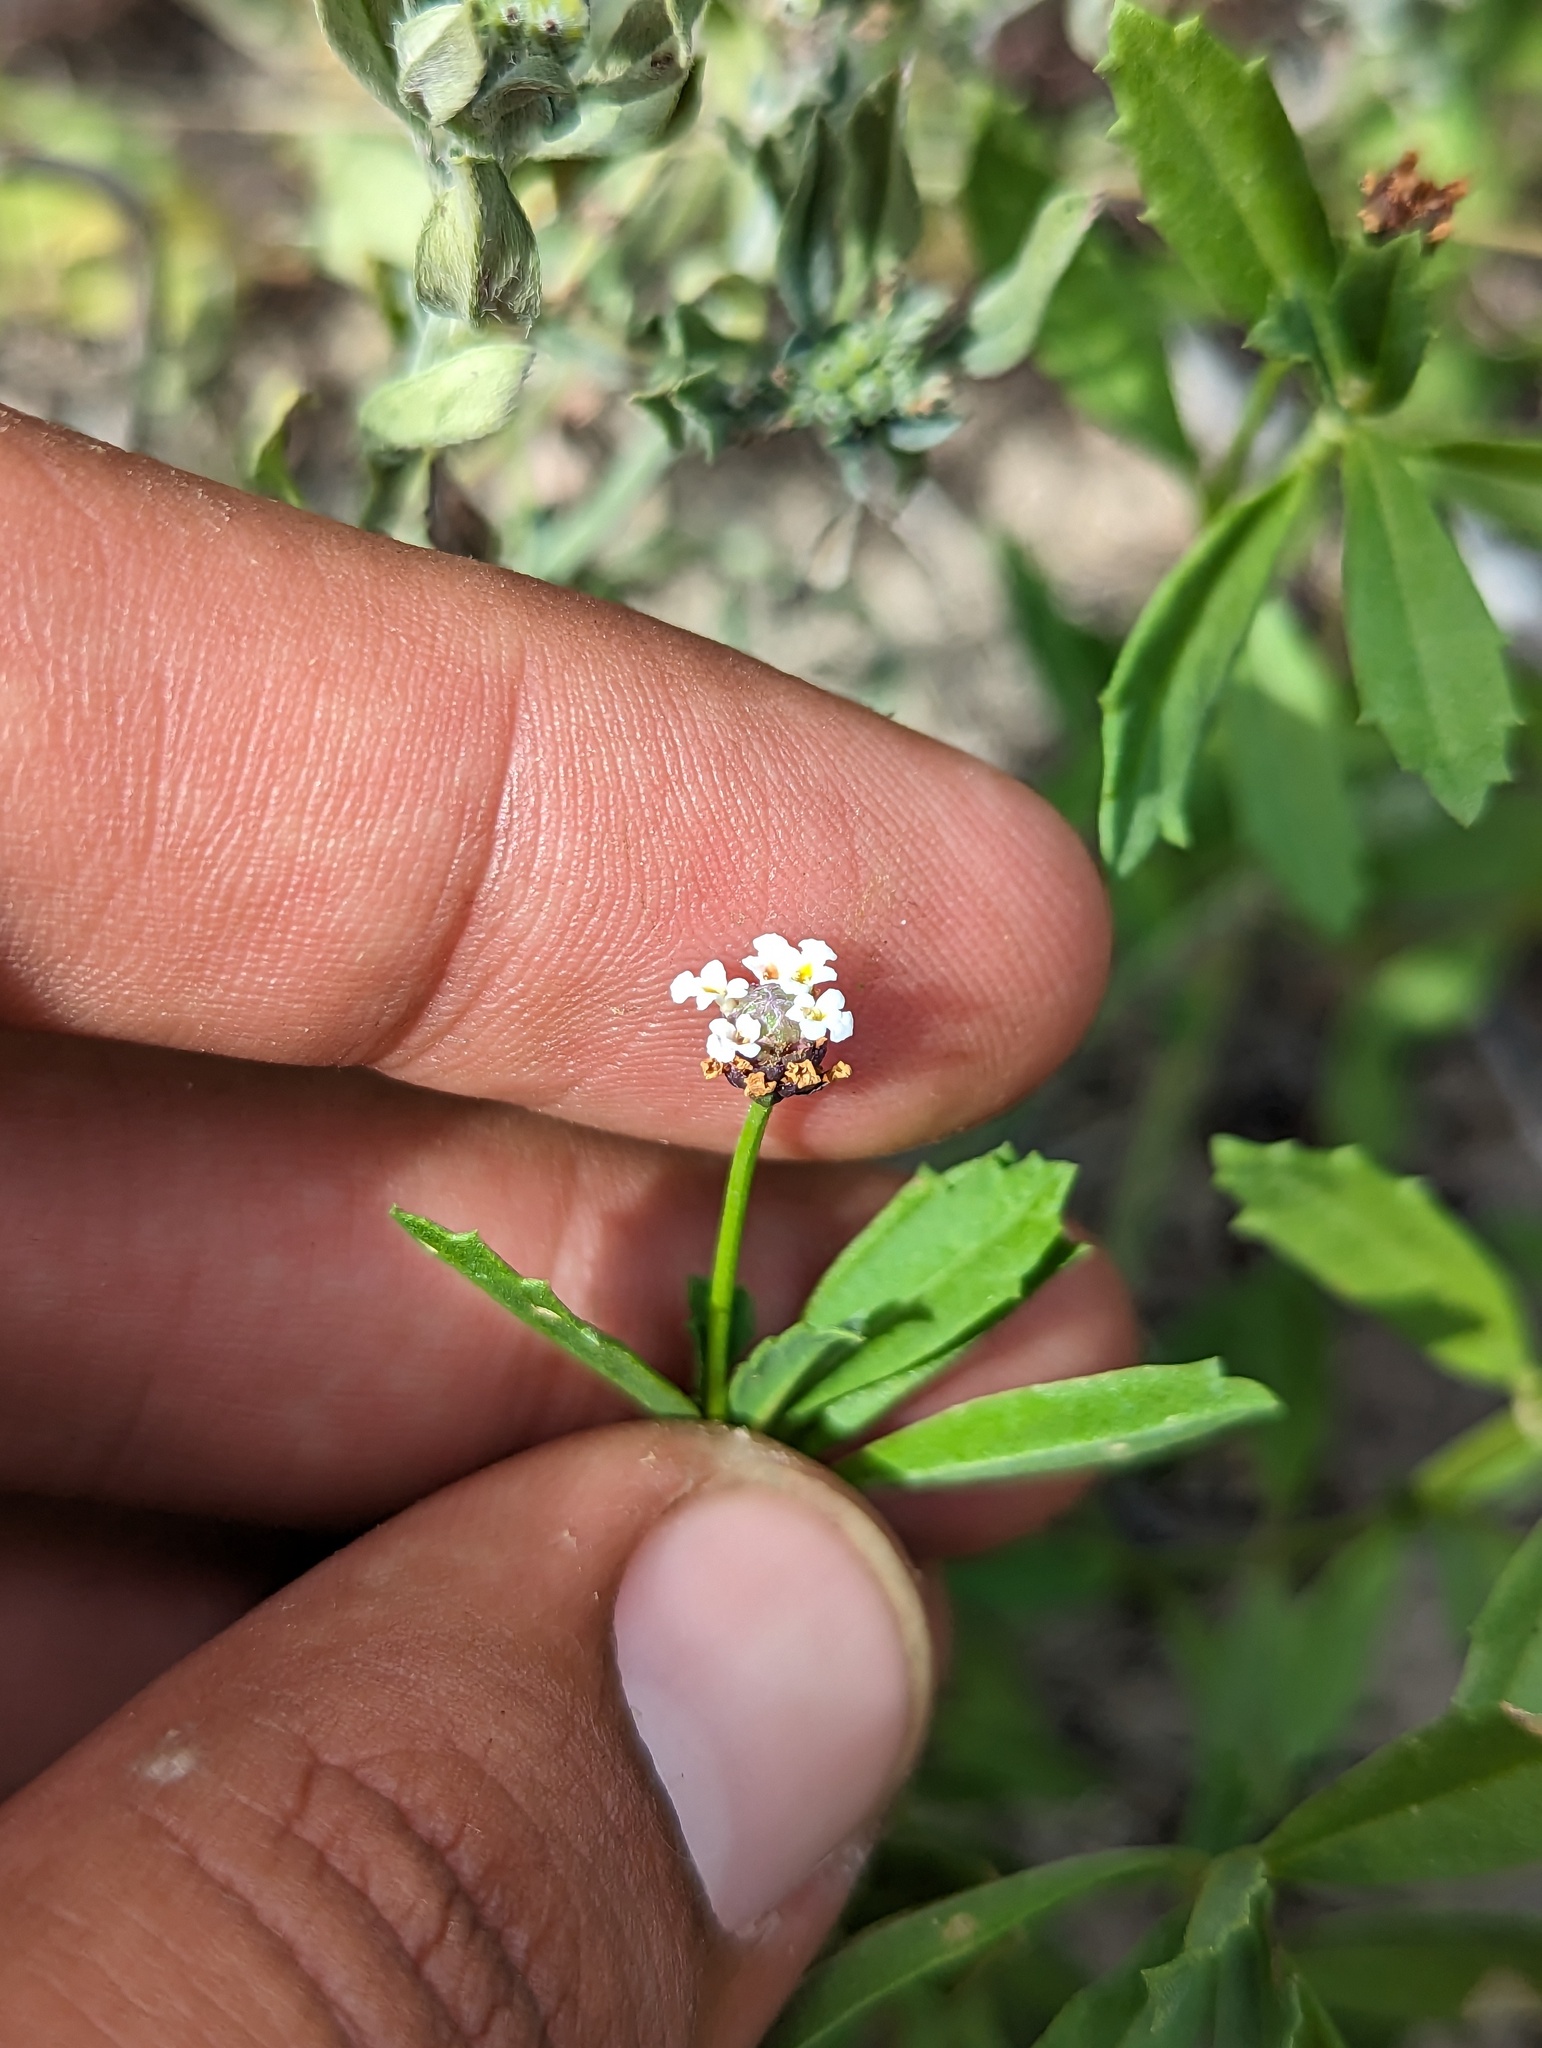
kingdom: Plantae
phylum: Tracheophyta
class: Magnoliopsida
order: Lamiales
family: Verbenaceae
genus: Phyla
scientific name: Phyla nodiflora
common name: Frogfruit
